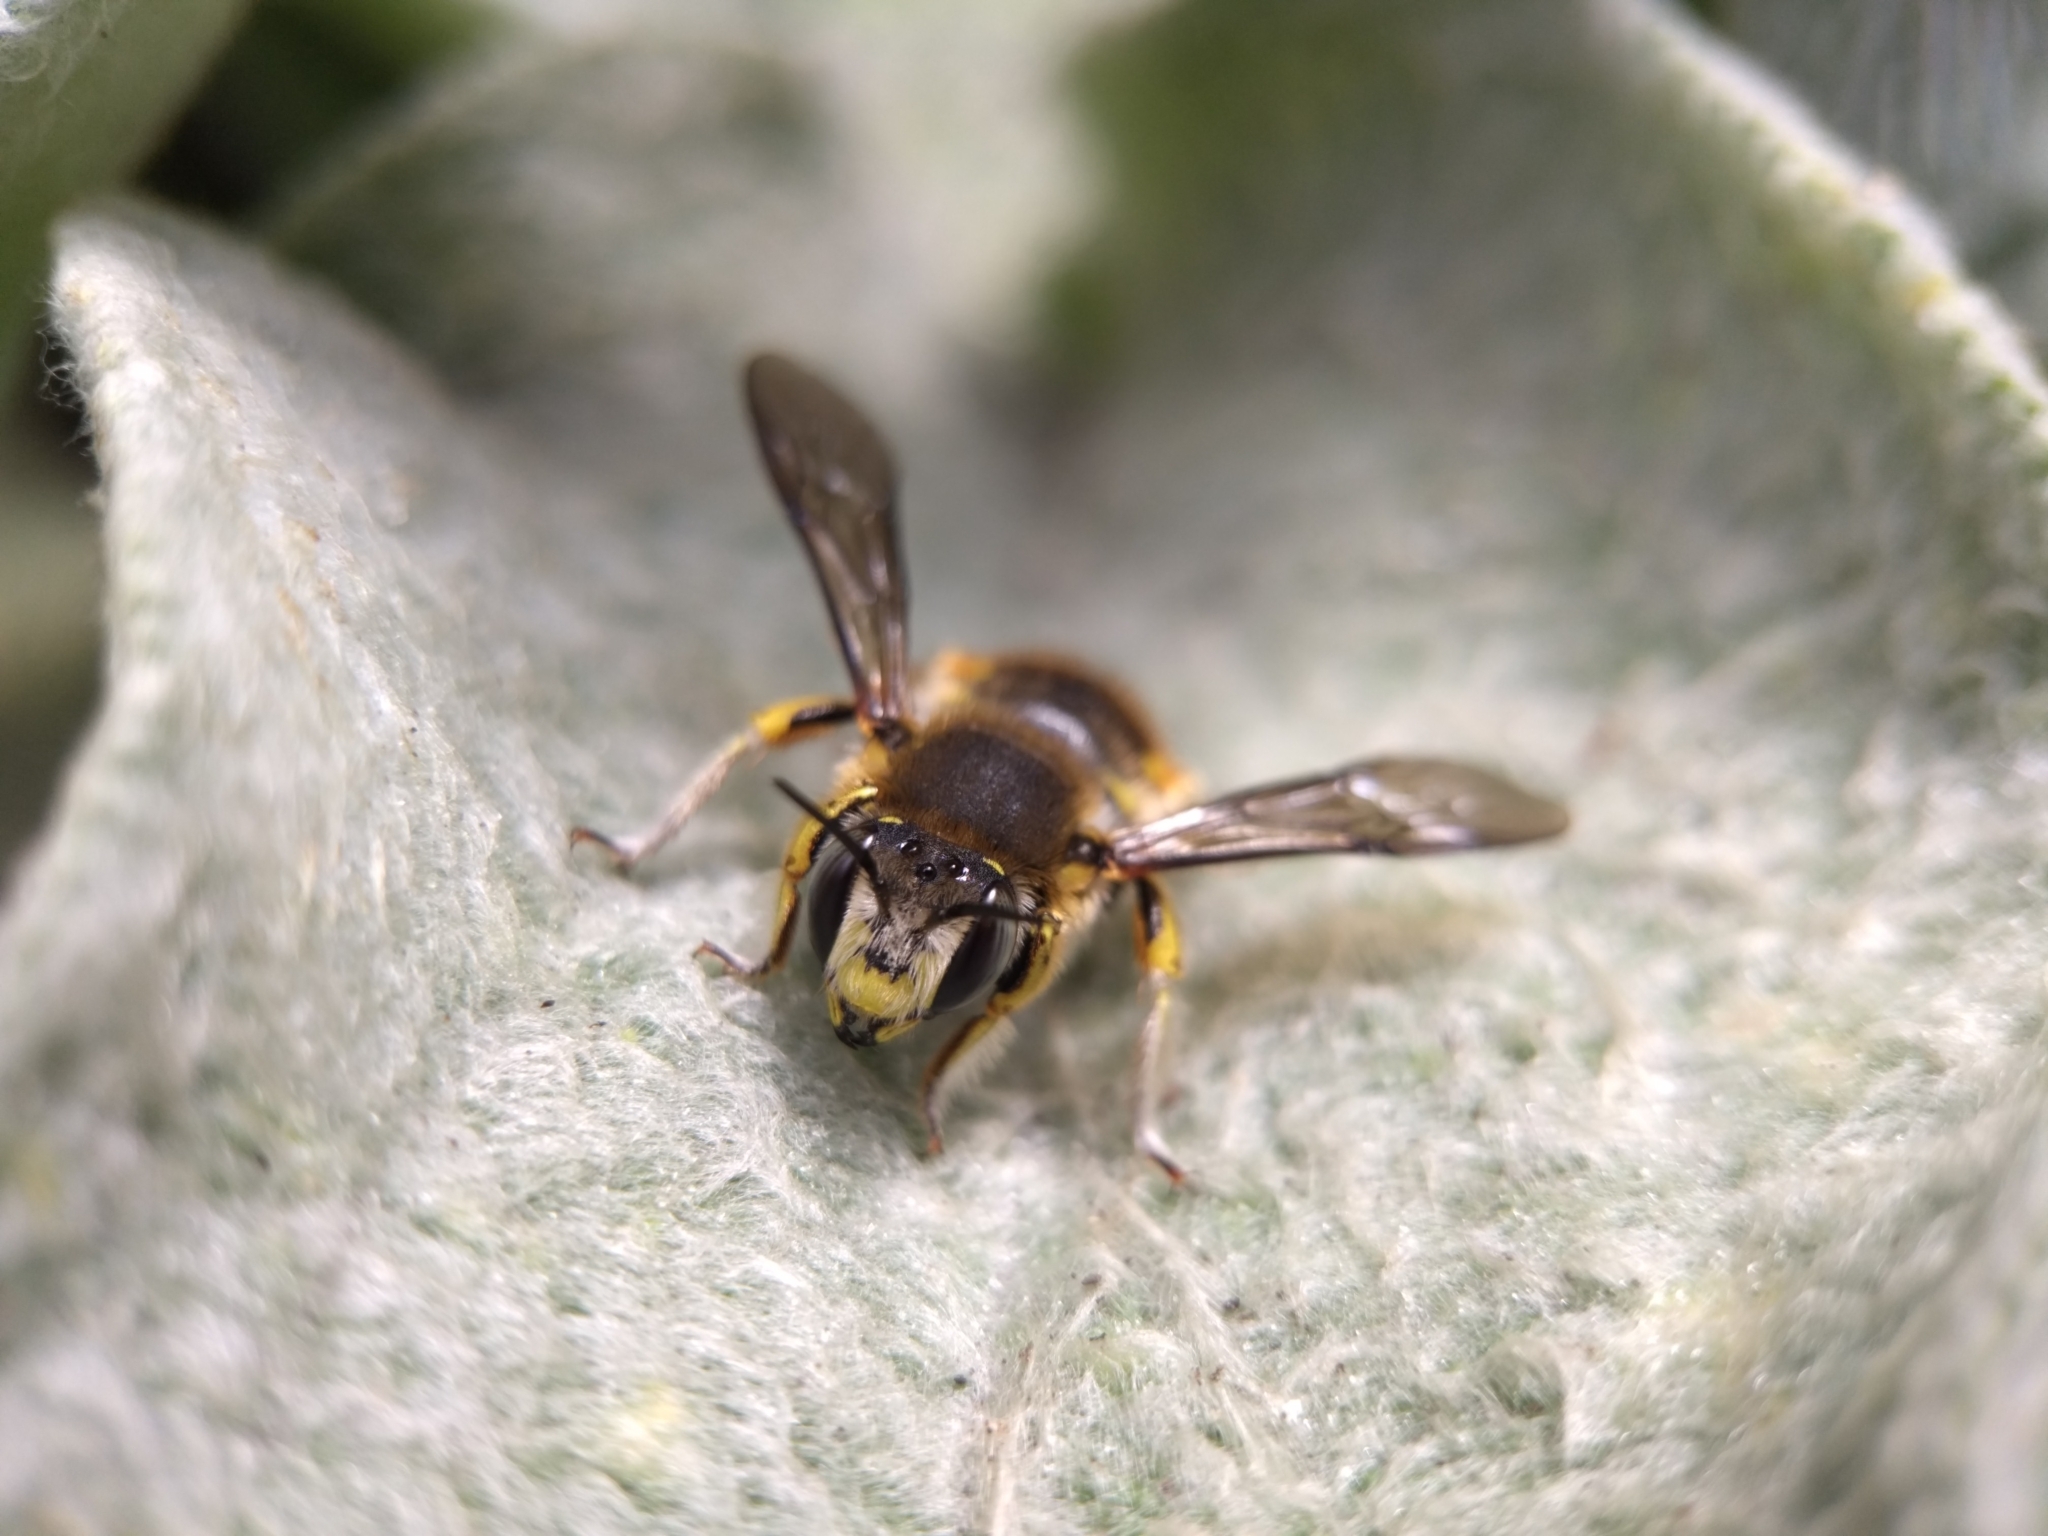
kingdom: Animalia
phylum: Arthropoda
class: Insecta
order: Hymenoptera
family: Megachilidae
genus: Anthidium
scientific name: Anthidium manicatum
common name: Wool carder bee
